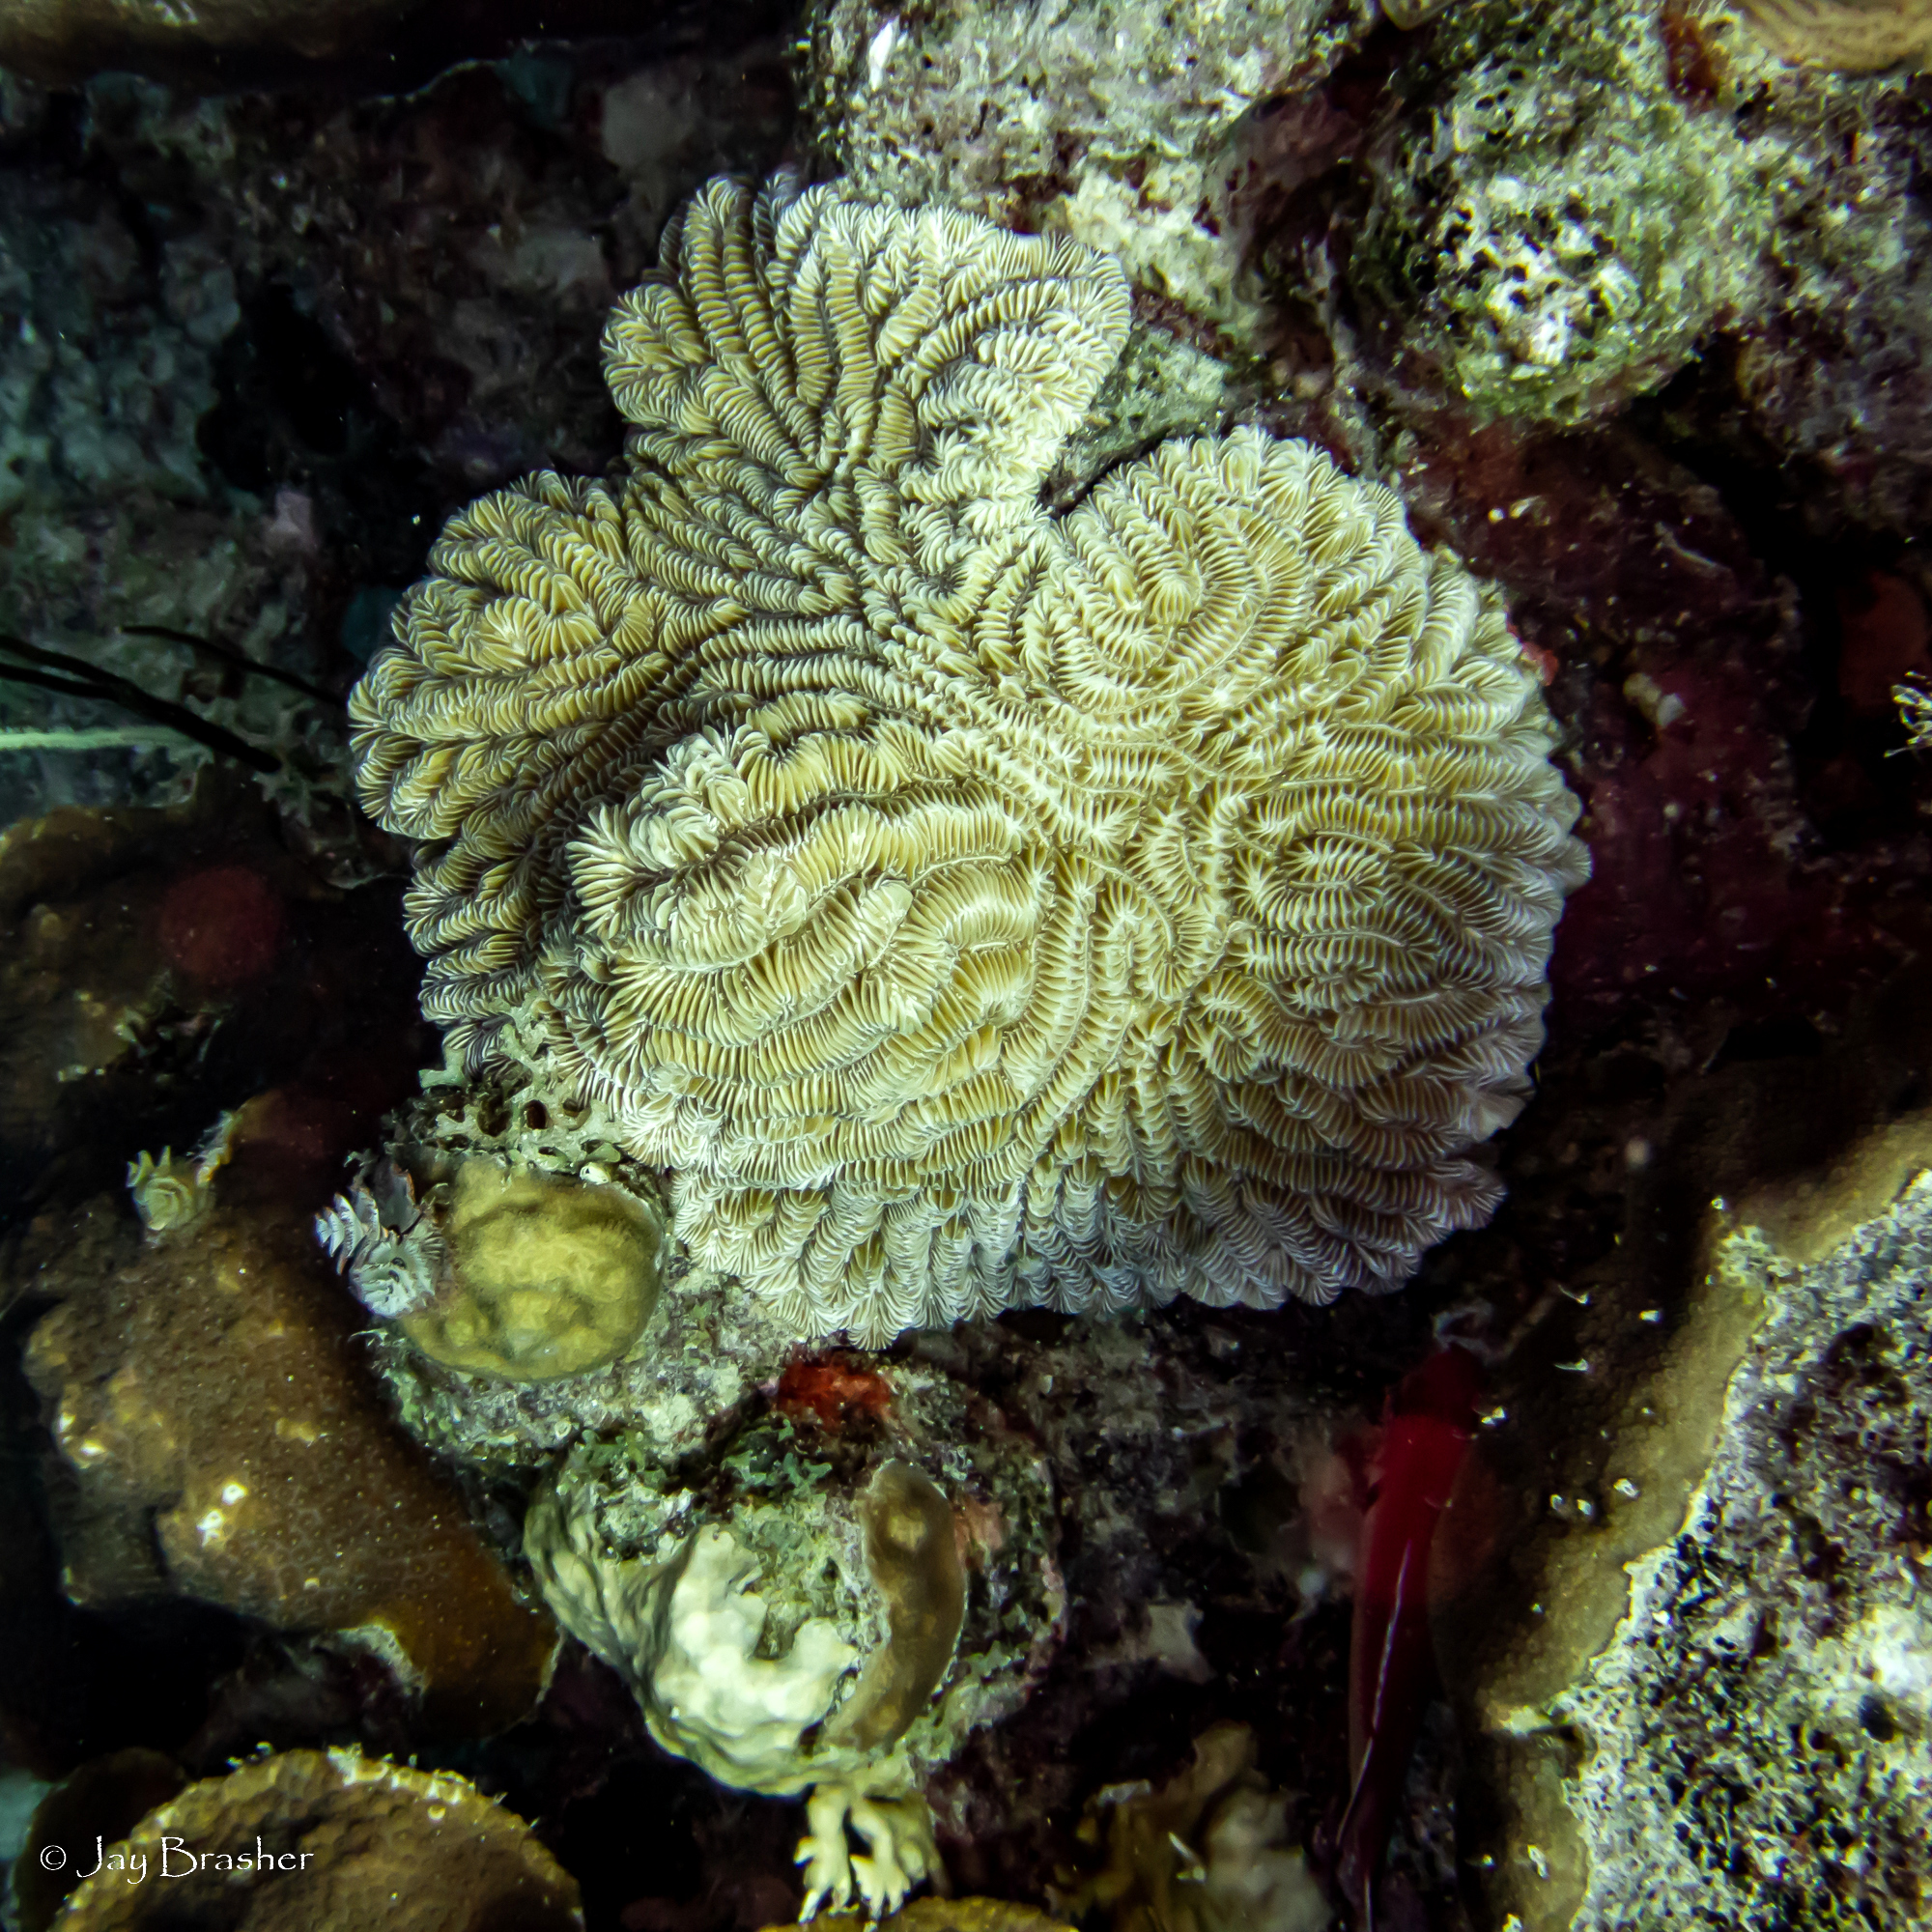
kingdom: Animalia
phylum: Cnidaria
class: Anthozoa
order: Scleractinia
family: Meandrinidae
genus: Meandrina
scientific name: Meandrina meandrites
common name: Maze coral
